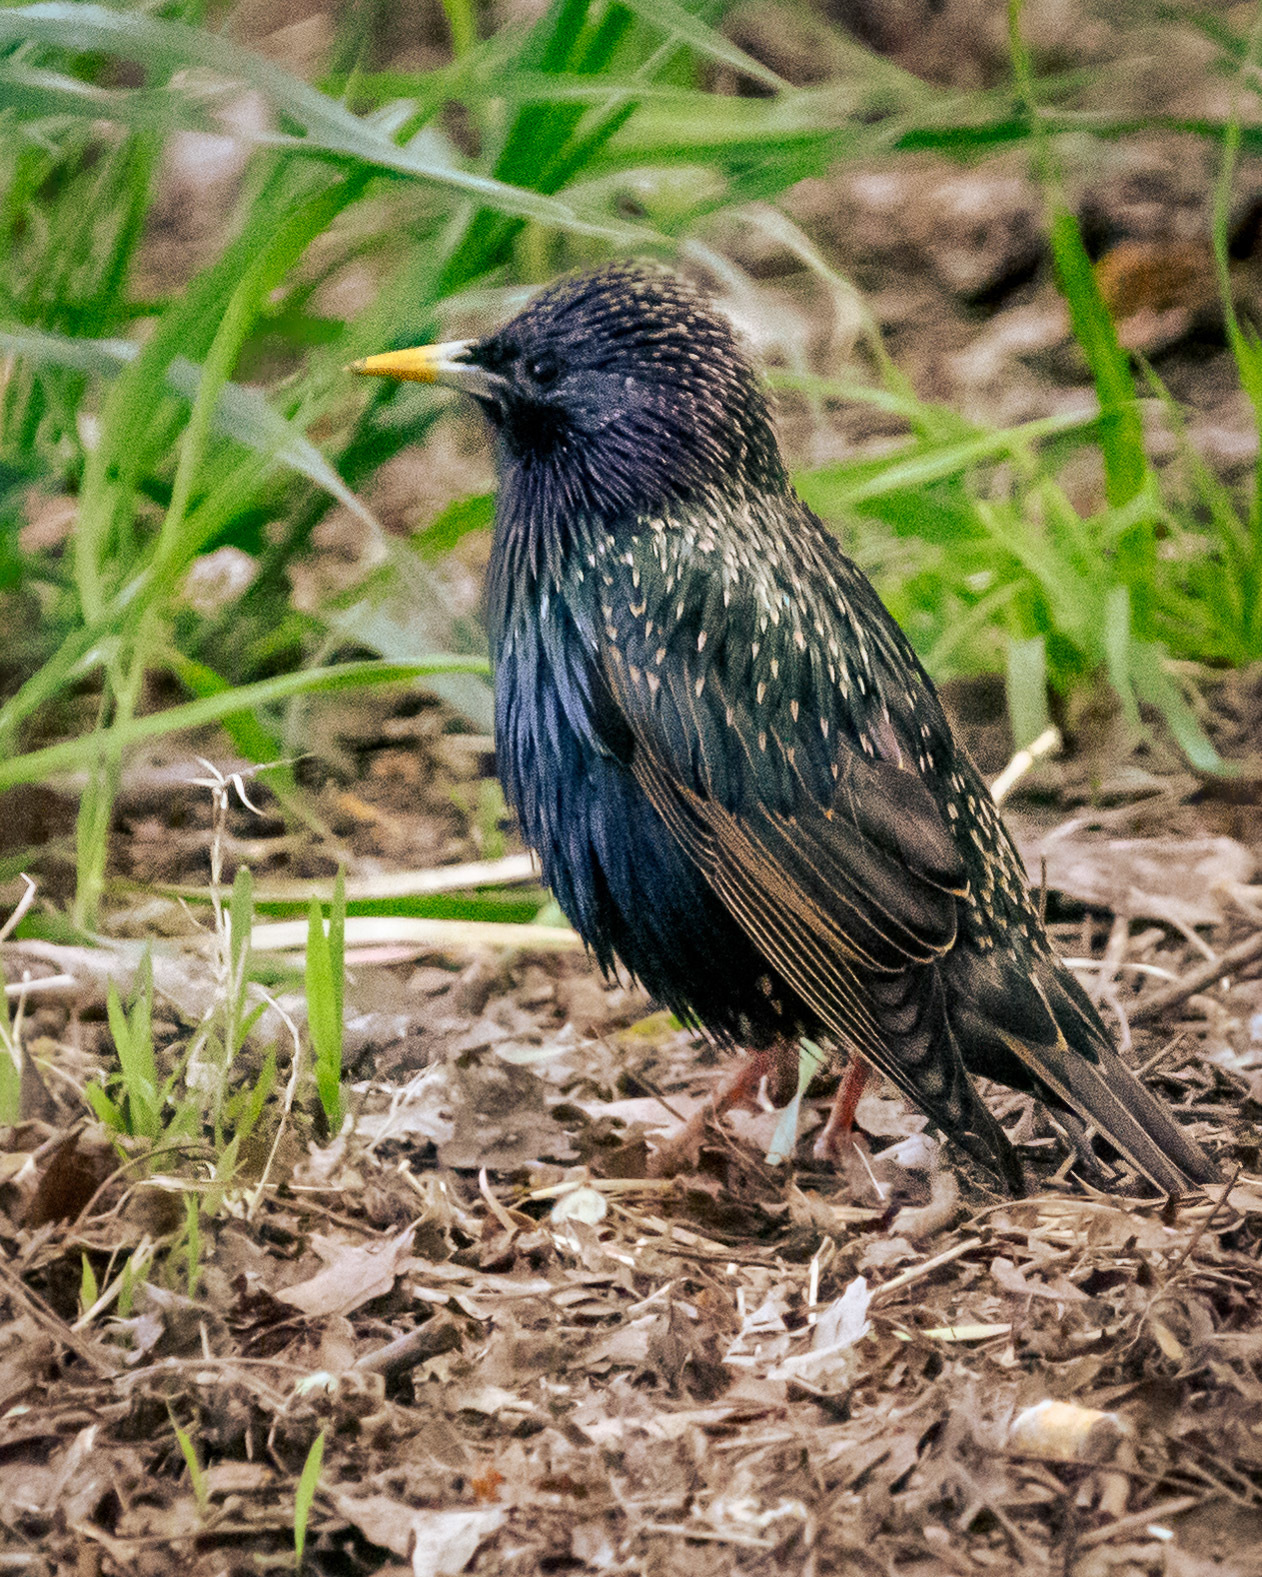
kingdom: Animalia
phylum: Chordata
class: Aves
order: Passeriformes
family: Sturnidae
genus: Sturnus
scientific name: Sturnus vulgaris
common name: Common starling
